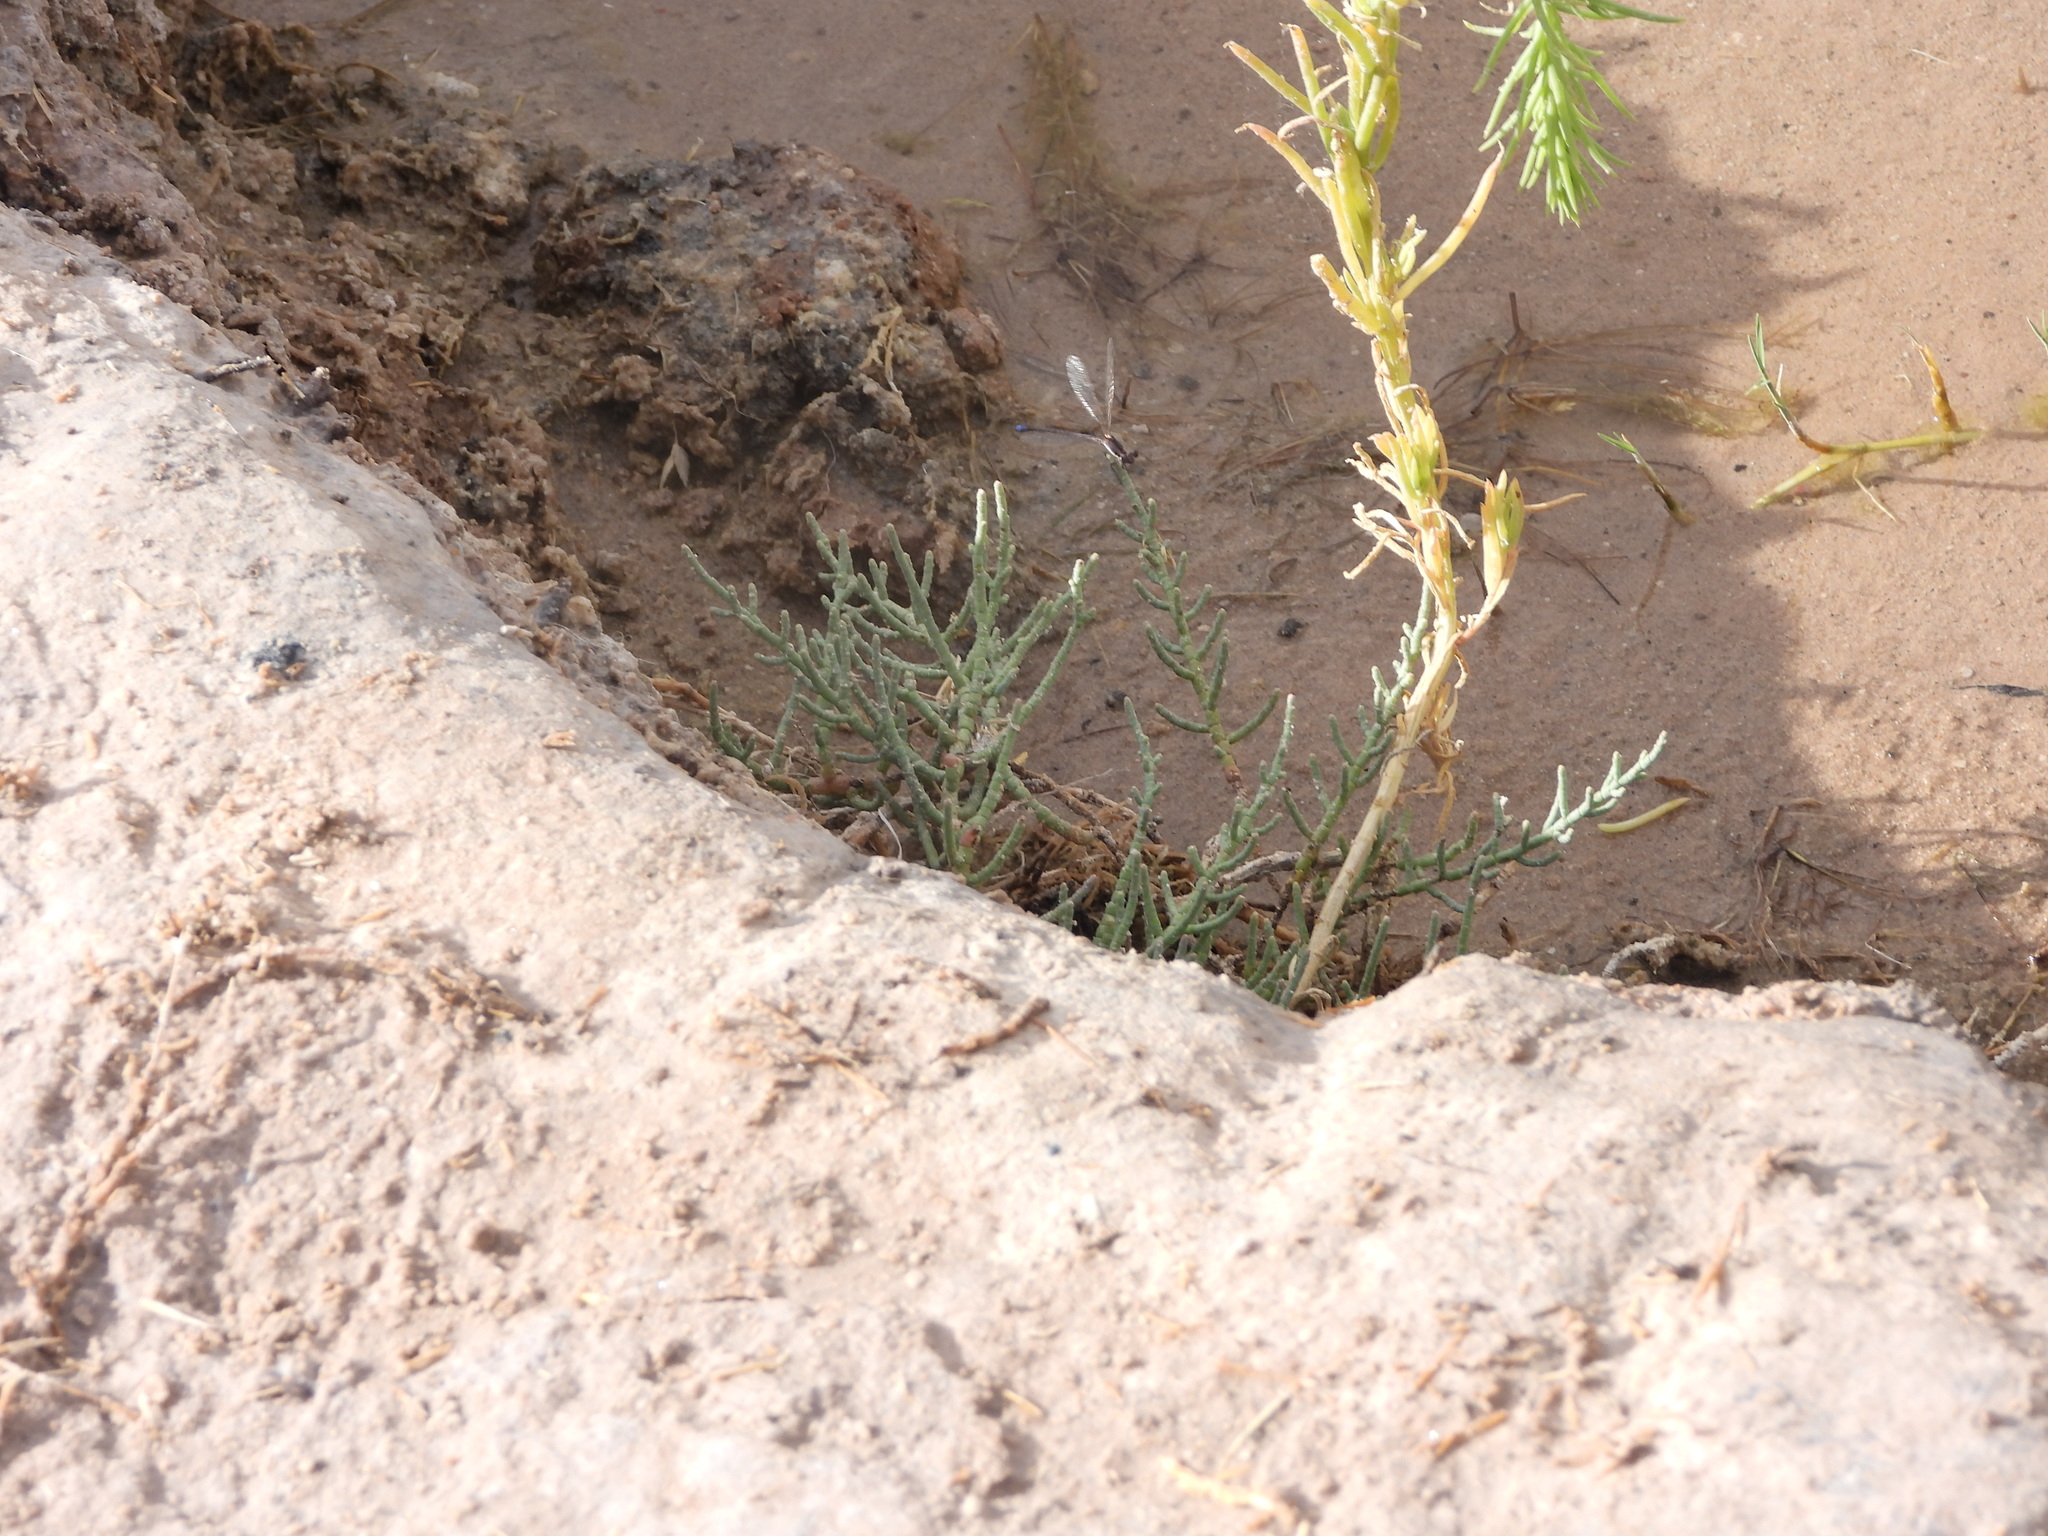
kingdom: Plantae
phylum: Tracheophyta
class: Magnoliopsida
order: Caryophyllales
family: Amaranthaceae
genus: Allenrolfea
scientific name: Allenrolfea occidentalis
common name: Iodine-bush
